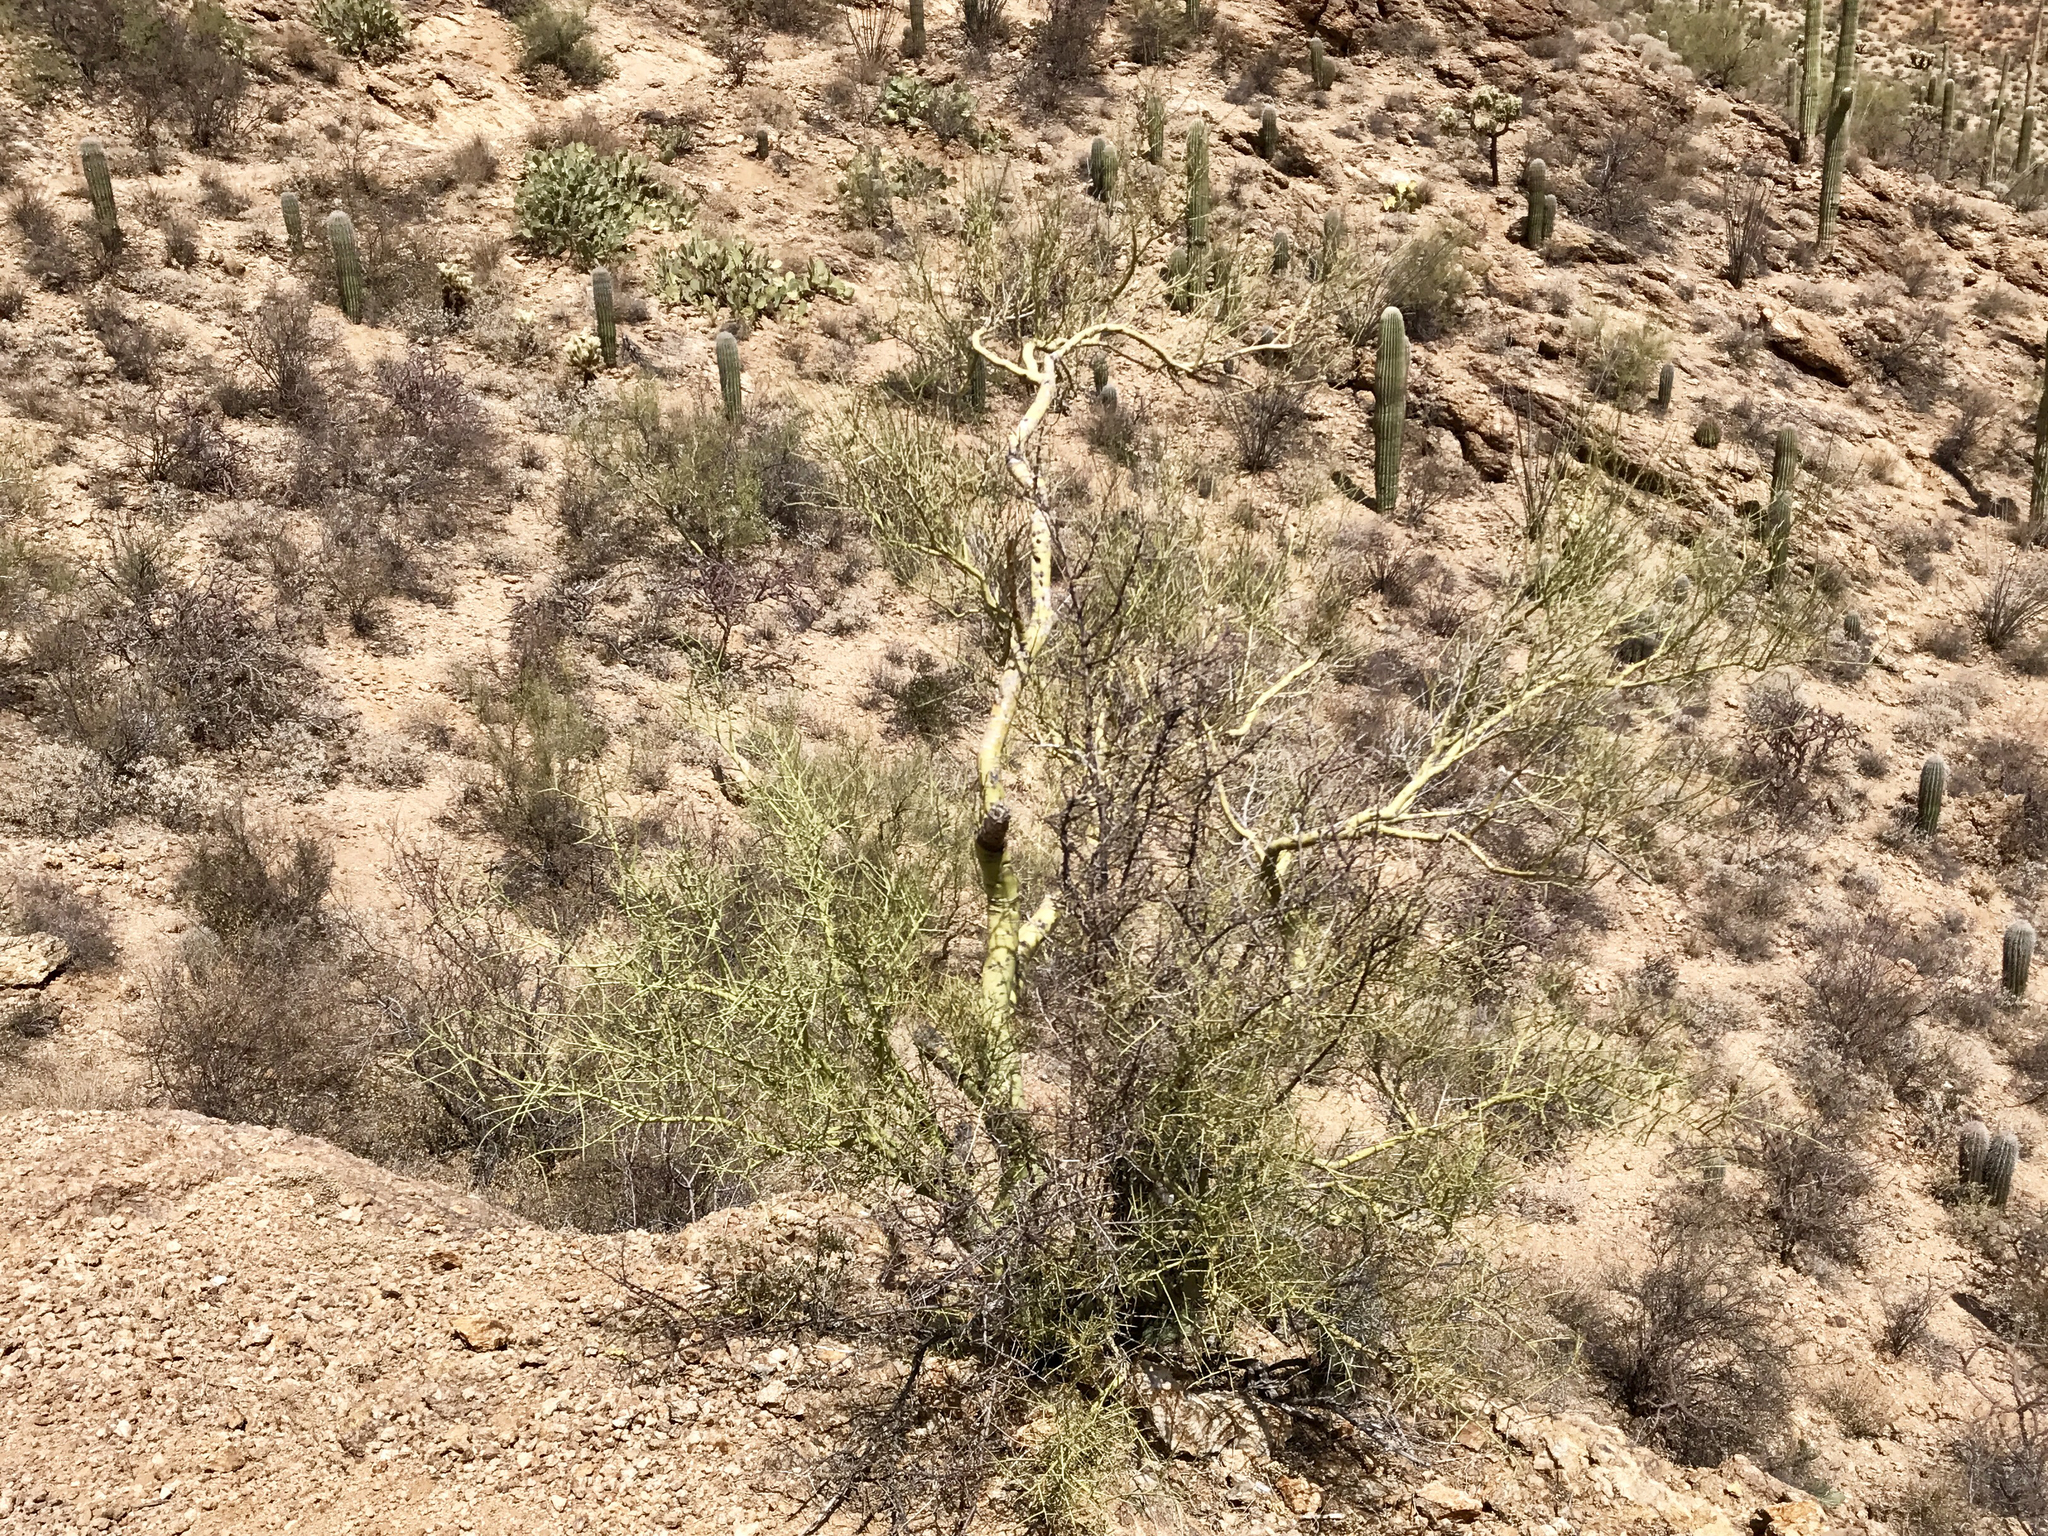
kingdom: Plantae
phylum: Tracheophyta
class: Magnoliopsida
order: Fabales
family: Fabaceae
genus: Parkinsonia
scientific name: Parkinsonia microphylla
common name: Yellow paloverde
